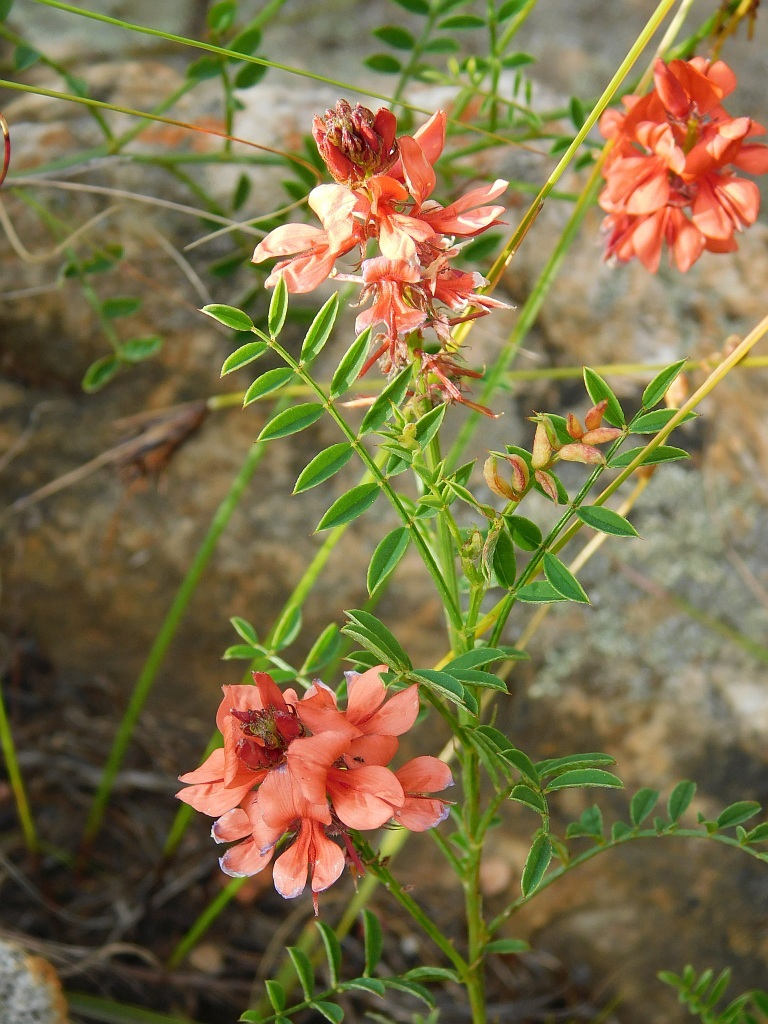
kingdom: Plantae
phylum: Tracheophyta
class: Magnoliopsida
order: Fabales
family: Fabaceae
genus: Indigofera
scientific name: Indigofera capillaris
